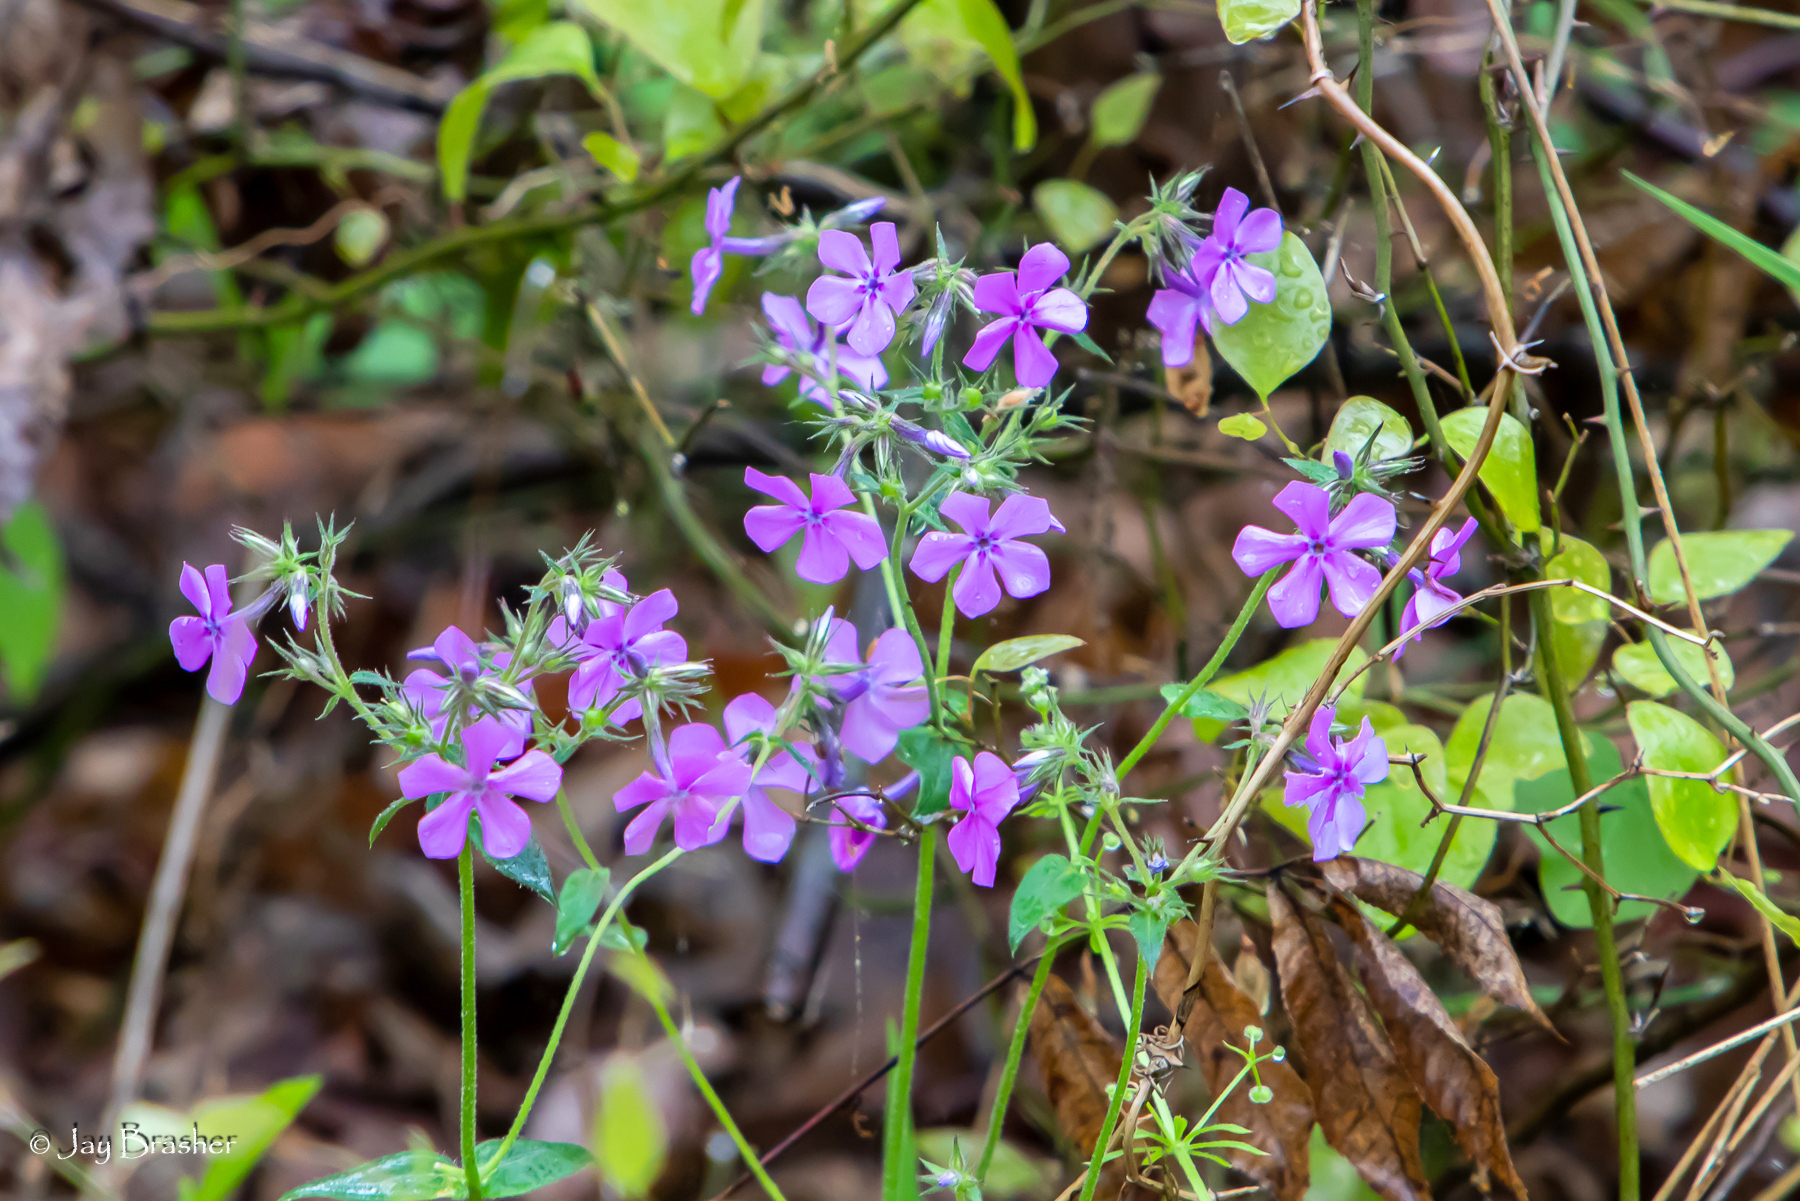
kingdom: Plantae
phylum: Tracheophyta
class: Magnoliopsida
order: Ericales
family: Polemoniaceae
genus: Phlox
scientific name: Phlox pilosa
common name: Prairie phlox
